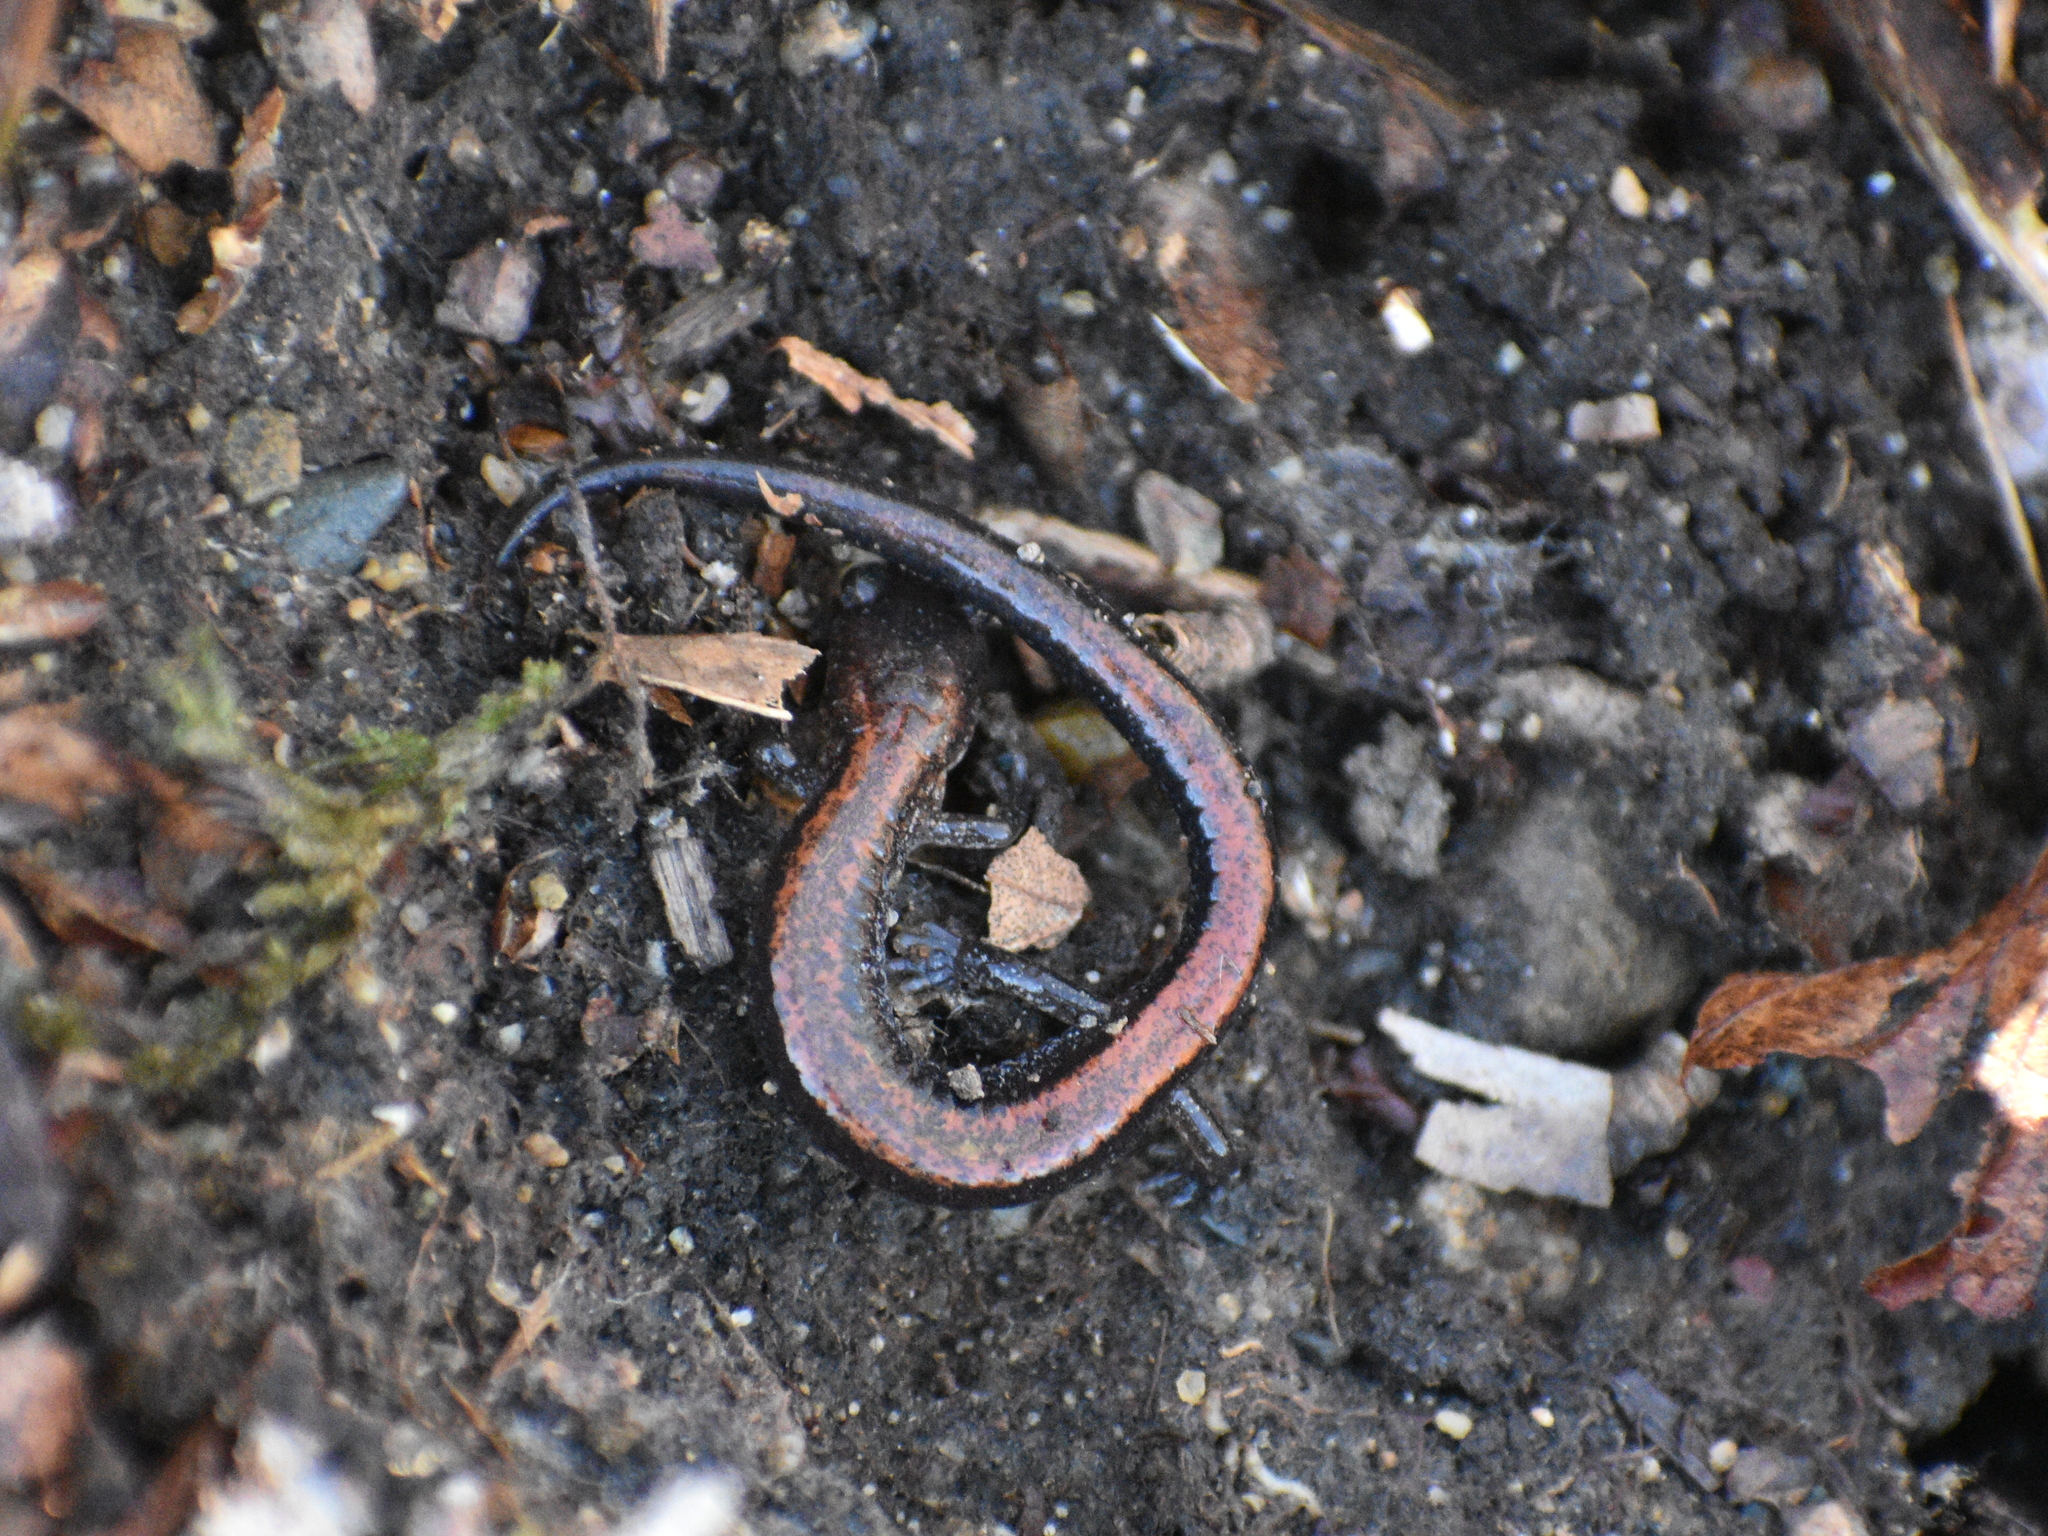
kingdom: Animalia
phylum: Chordata
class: Amphibia
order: Caudata
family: Plethodontidae
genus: Plethodon
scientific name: Plethodon cinereus
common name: Redback salamander
